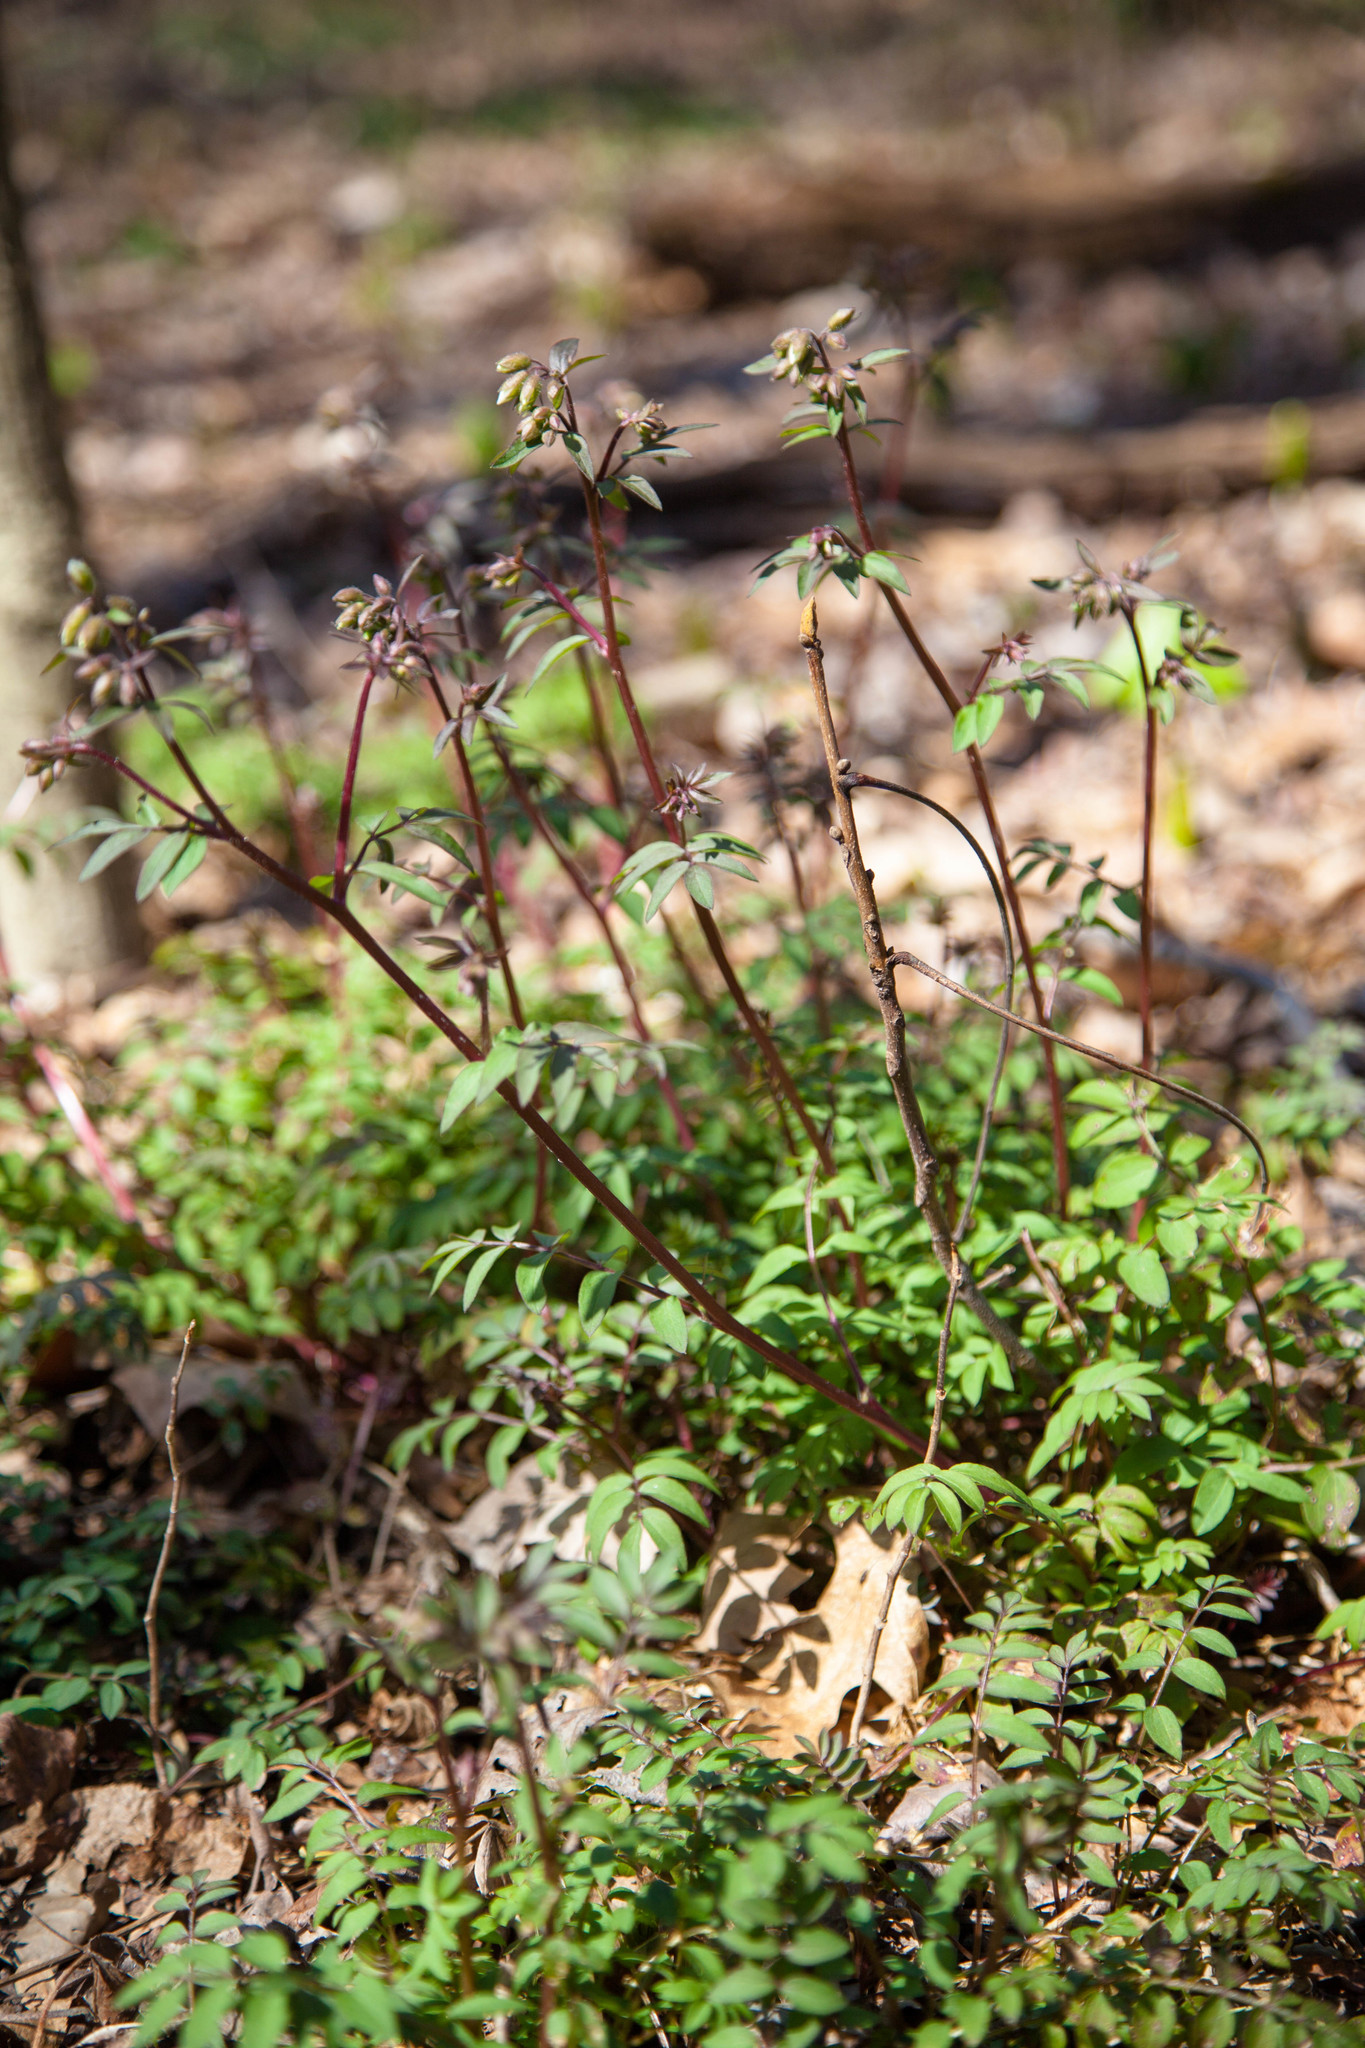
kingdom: Plantae
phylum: Tracheophyta
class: Magnoliopsida
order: Ericales
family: Polemoniaceae
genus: Polemonium
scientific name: Polemonium reptans
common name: Creeping jacob's-ladder
